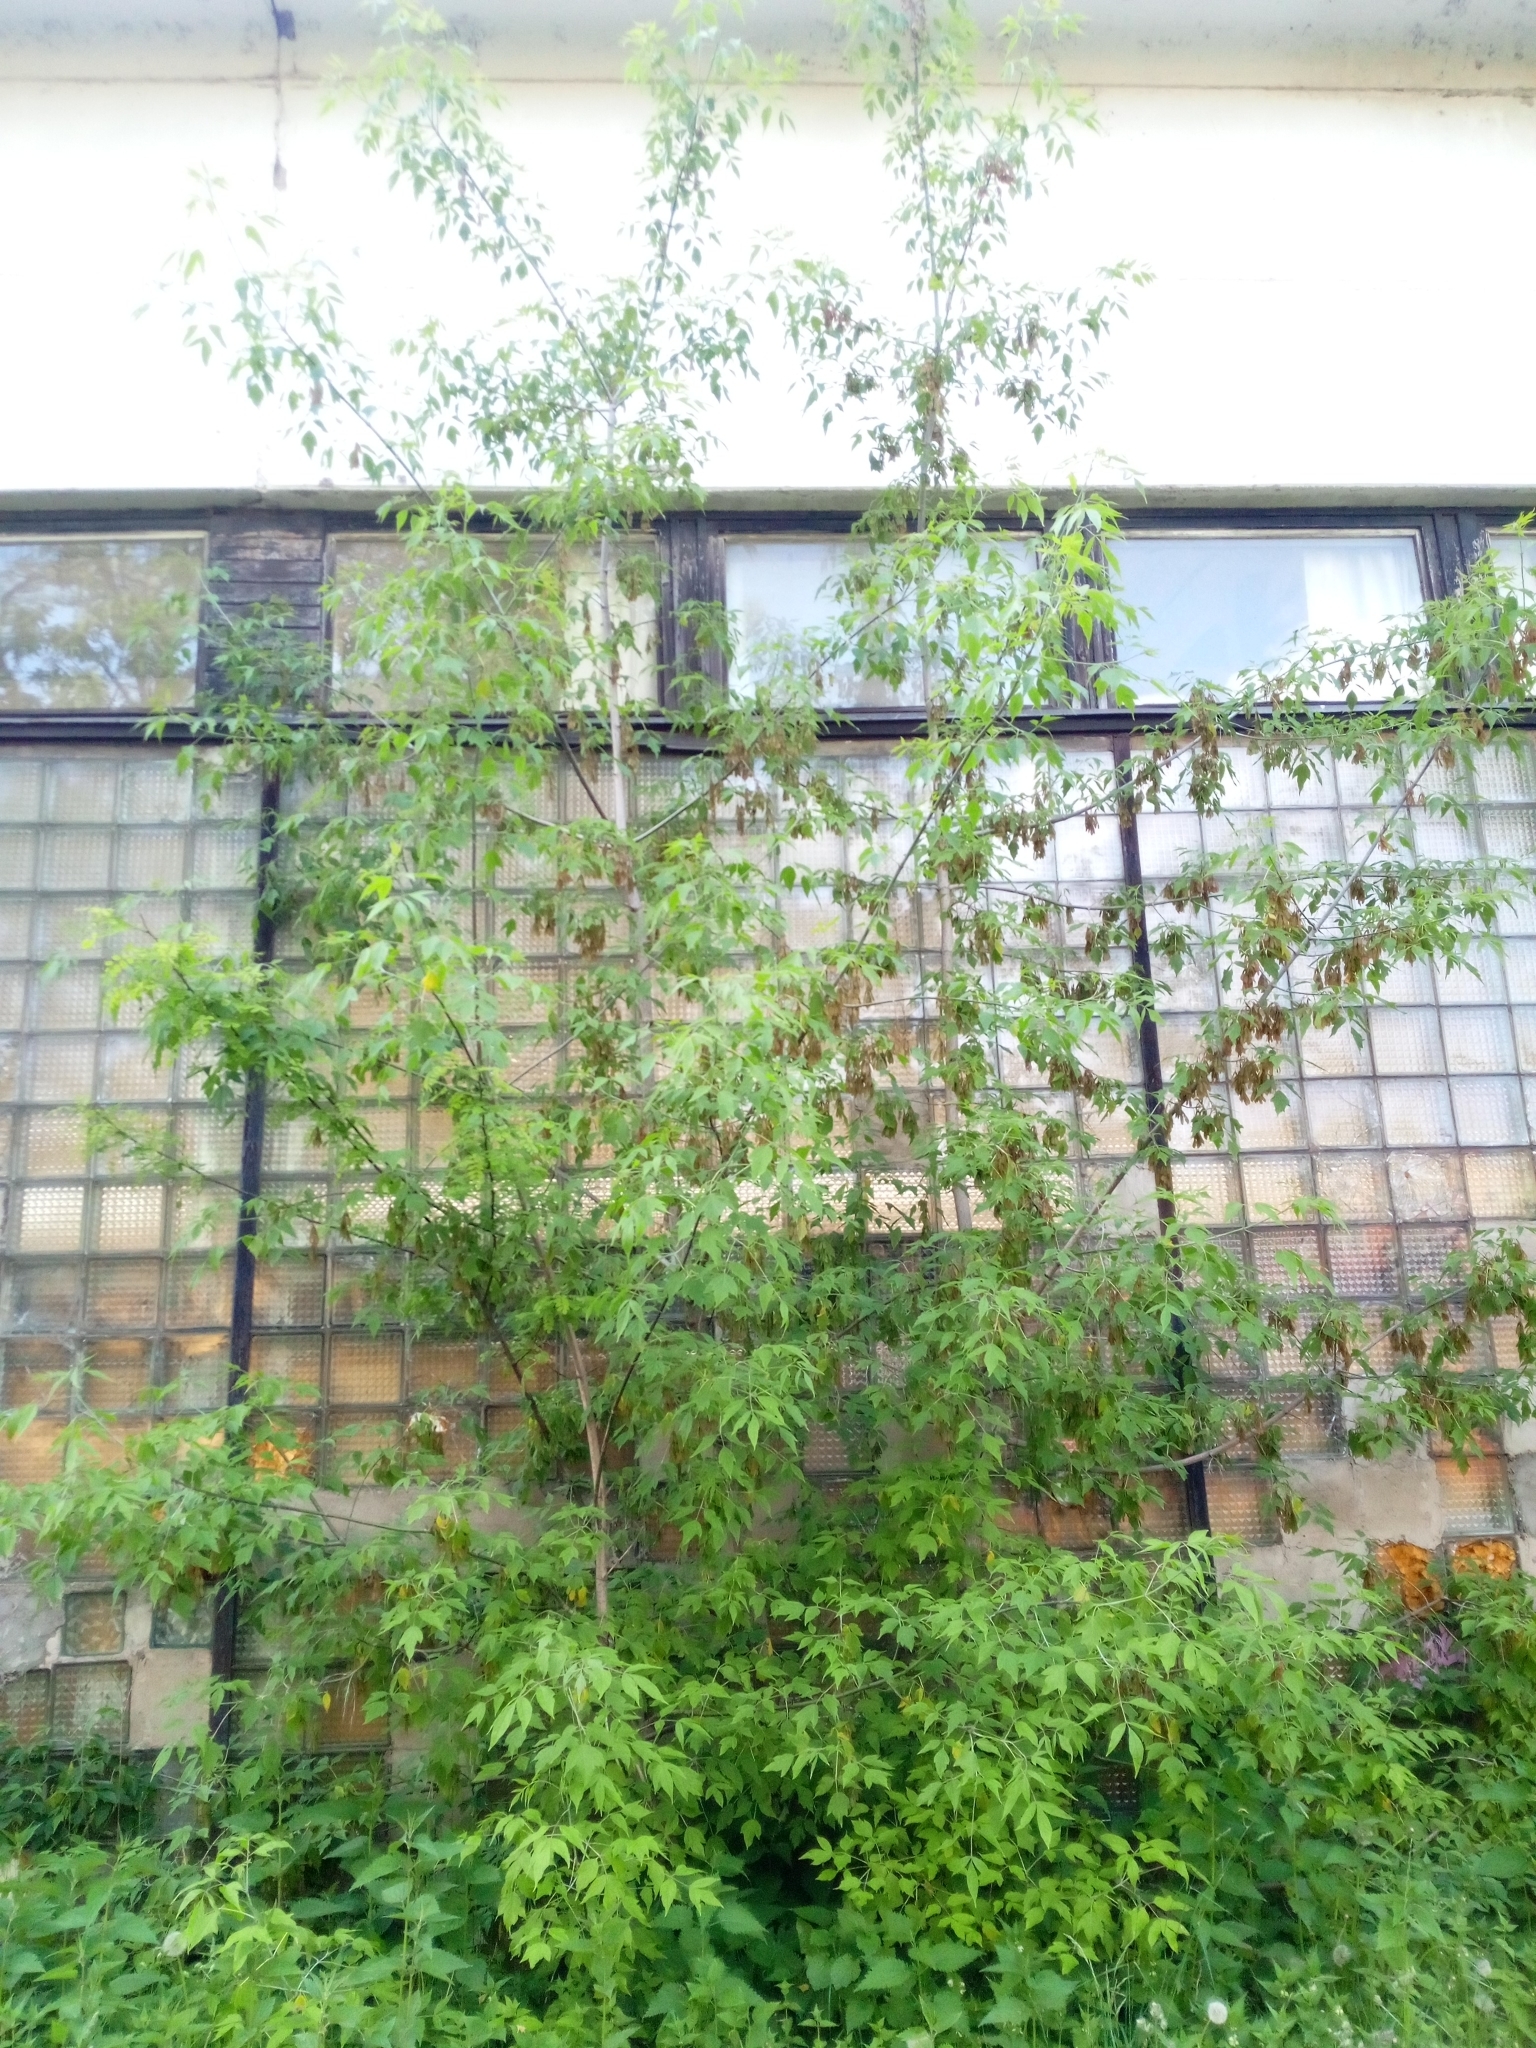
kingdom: Plantae
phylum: Tracheophyta
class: Magnoliopsida
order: Sapindales
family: Sapindaceae
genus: Acer
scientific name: Acer negundo
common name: Ashleaf maple
